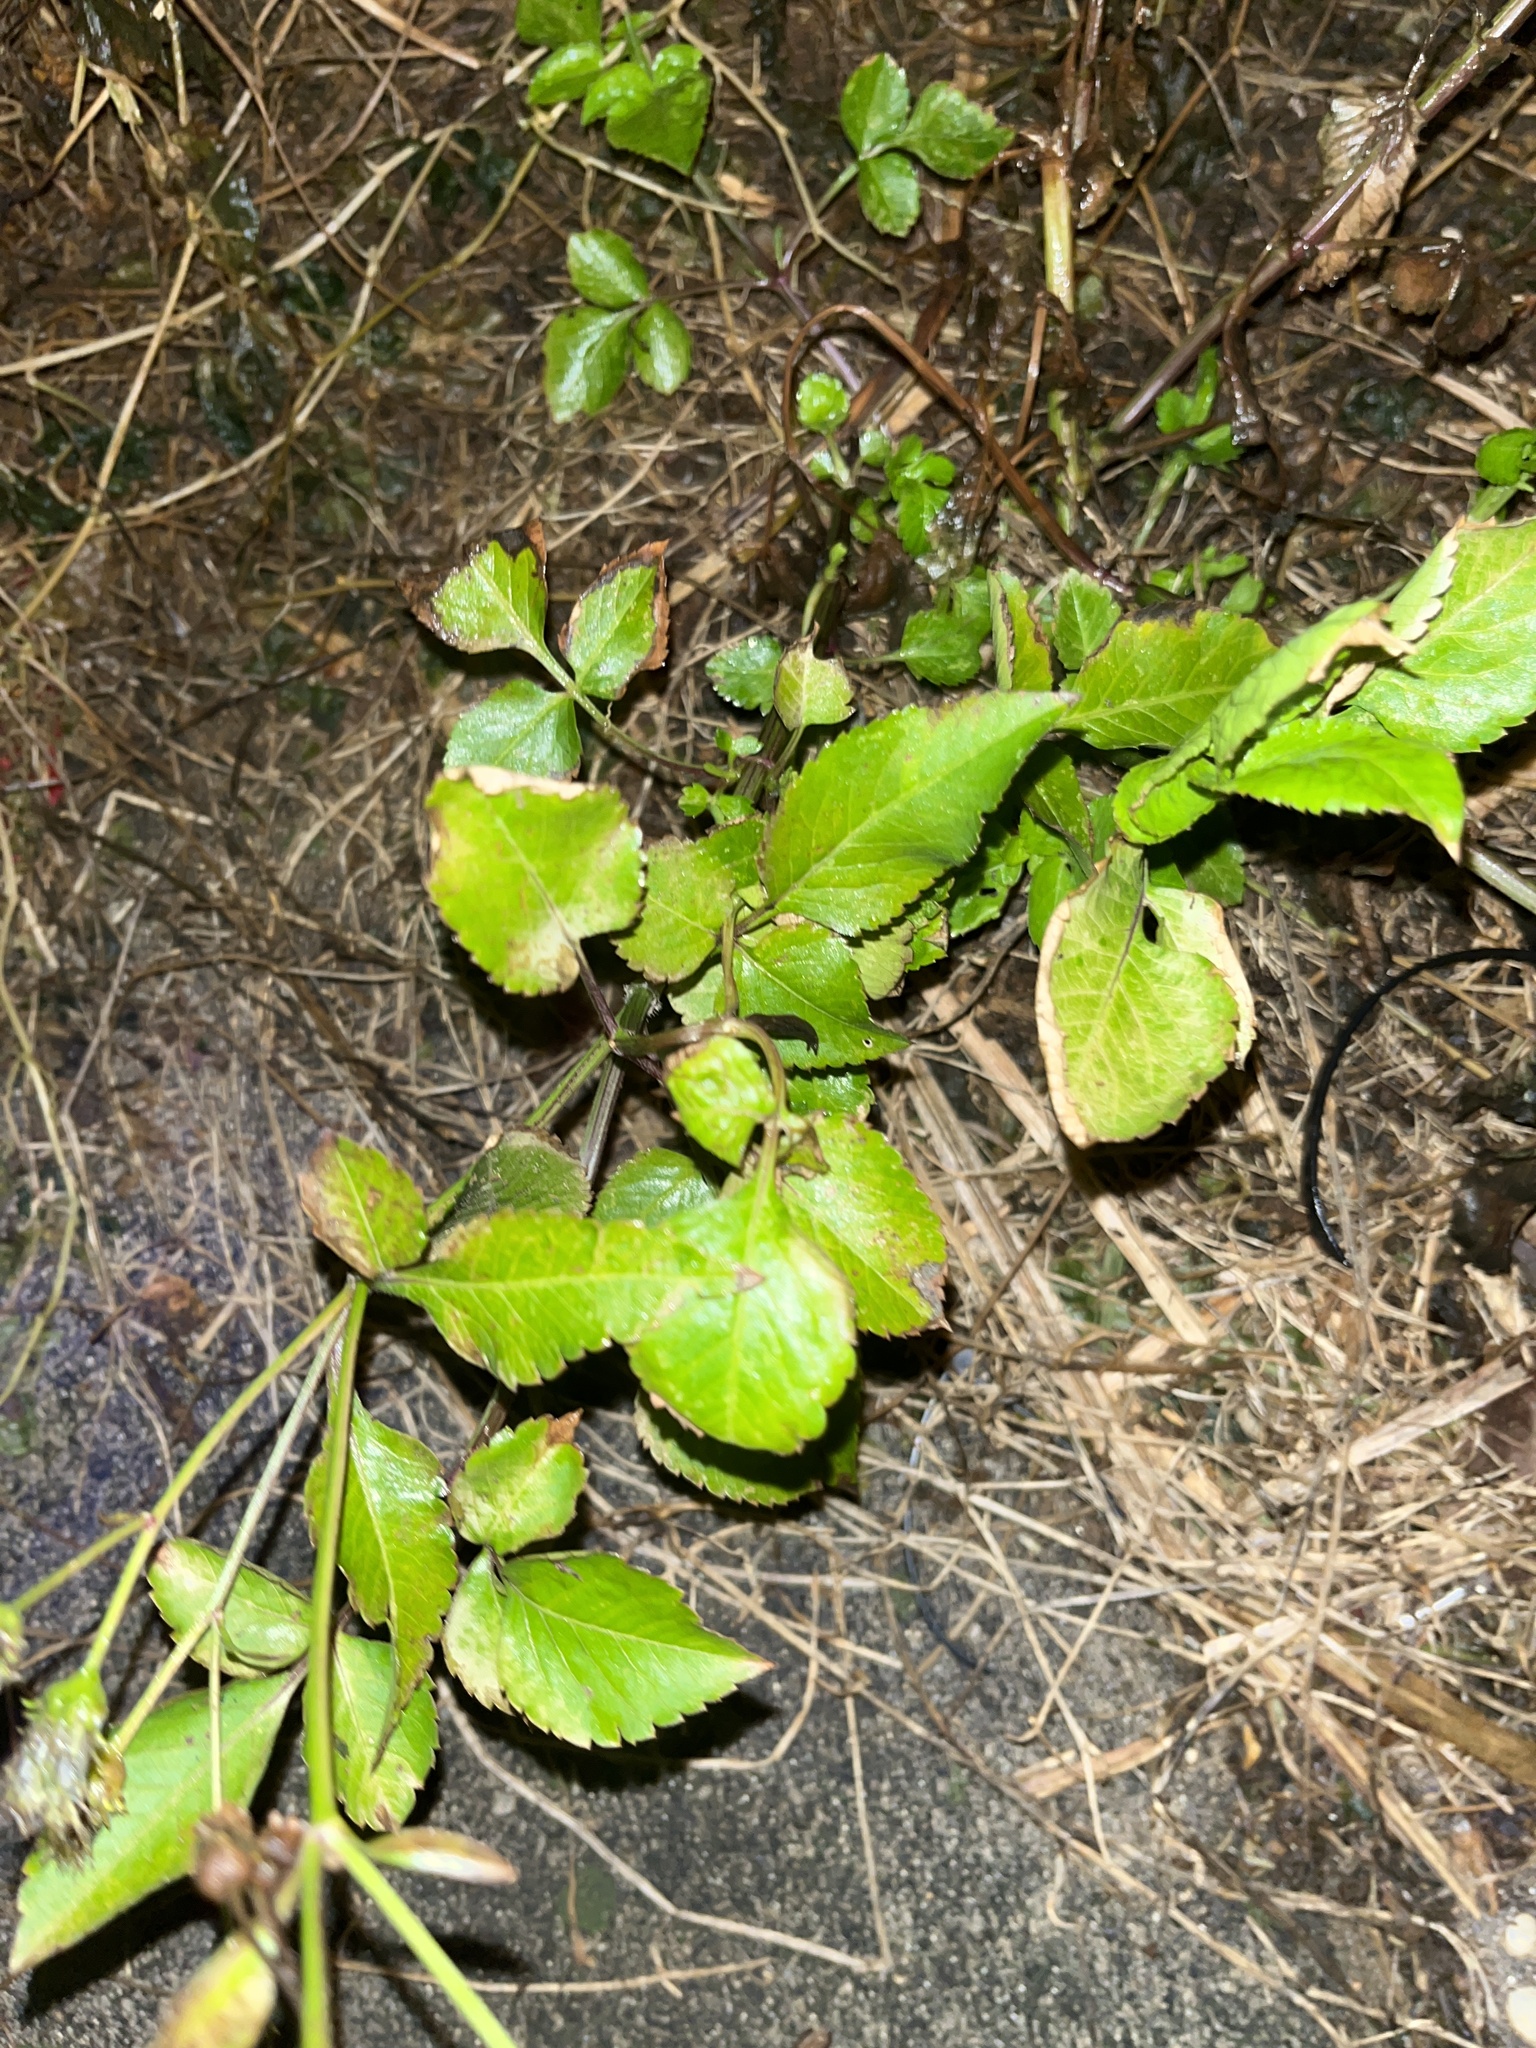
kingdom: Plantae
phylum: Tracheophyta
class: Magnoliopsida
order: Asterales
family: Asteraceae
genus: Bidens
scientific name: Bidens alba
